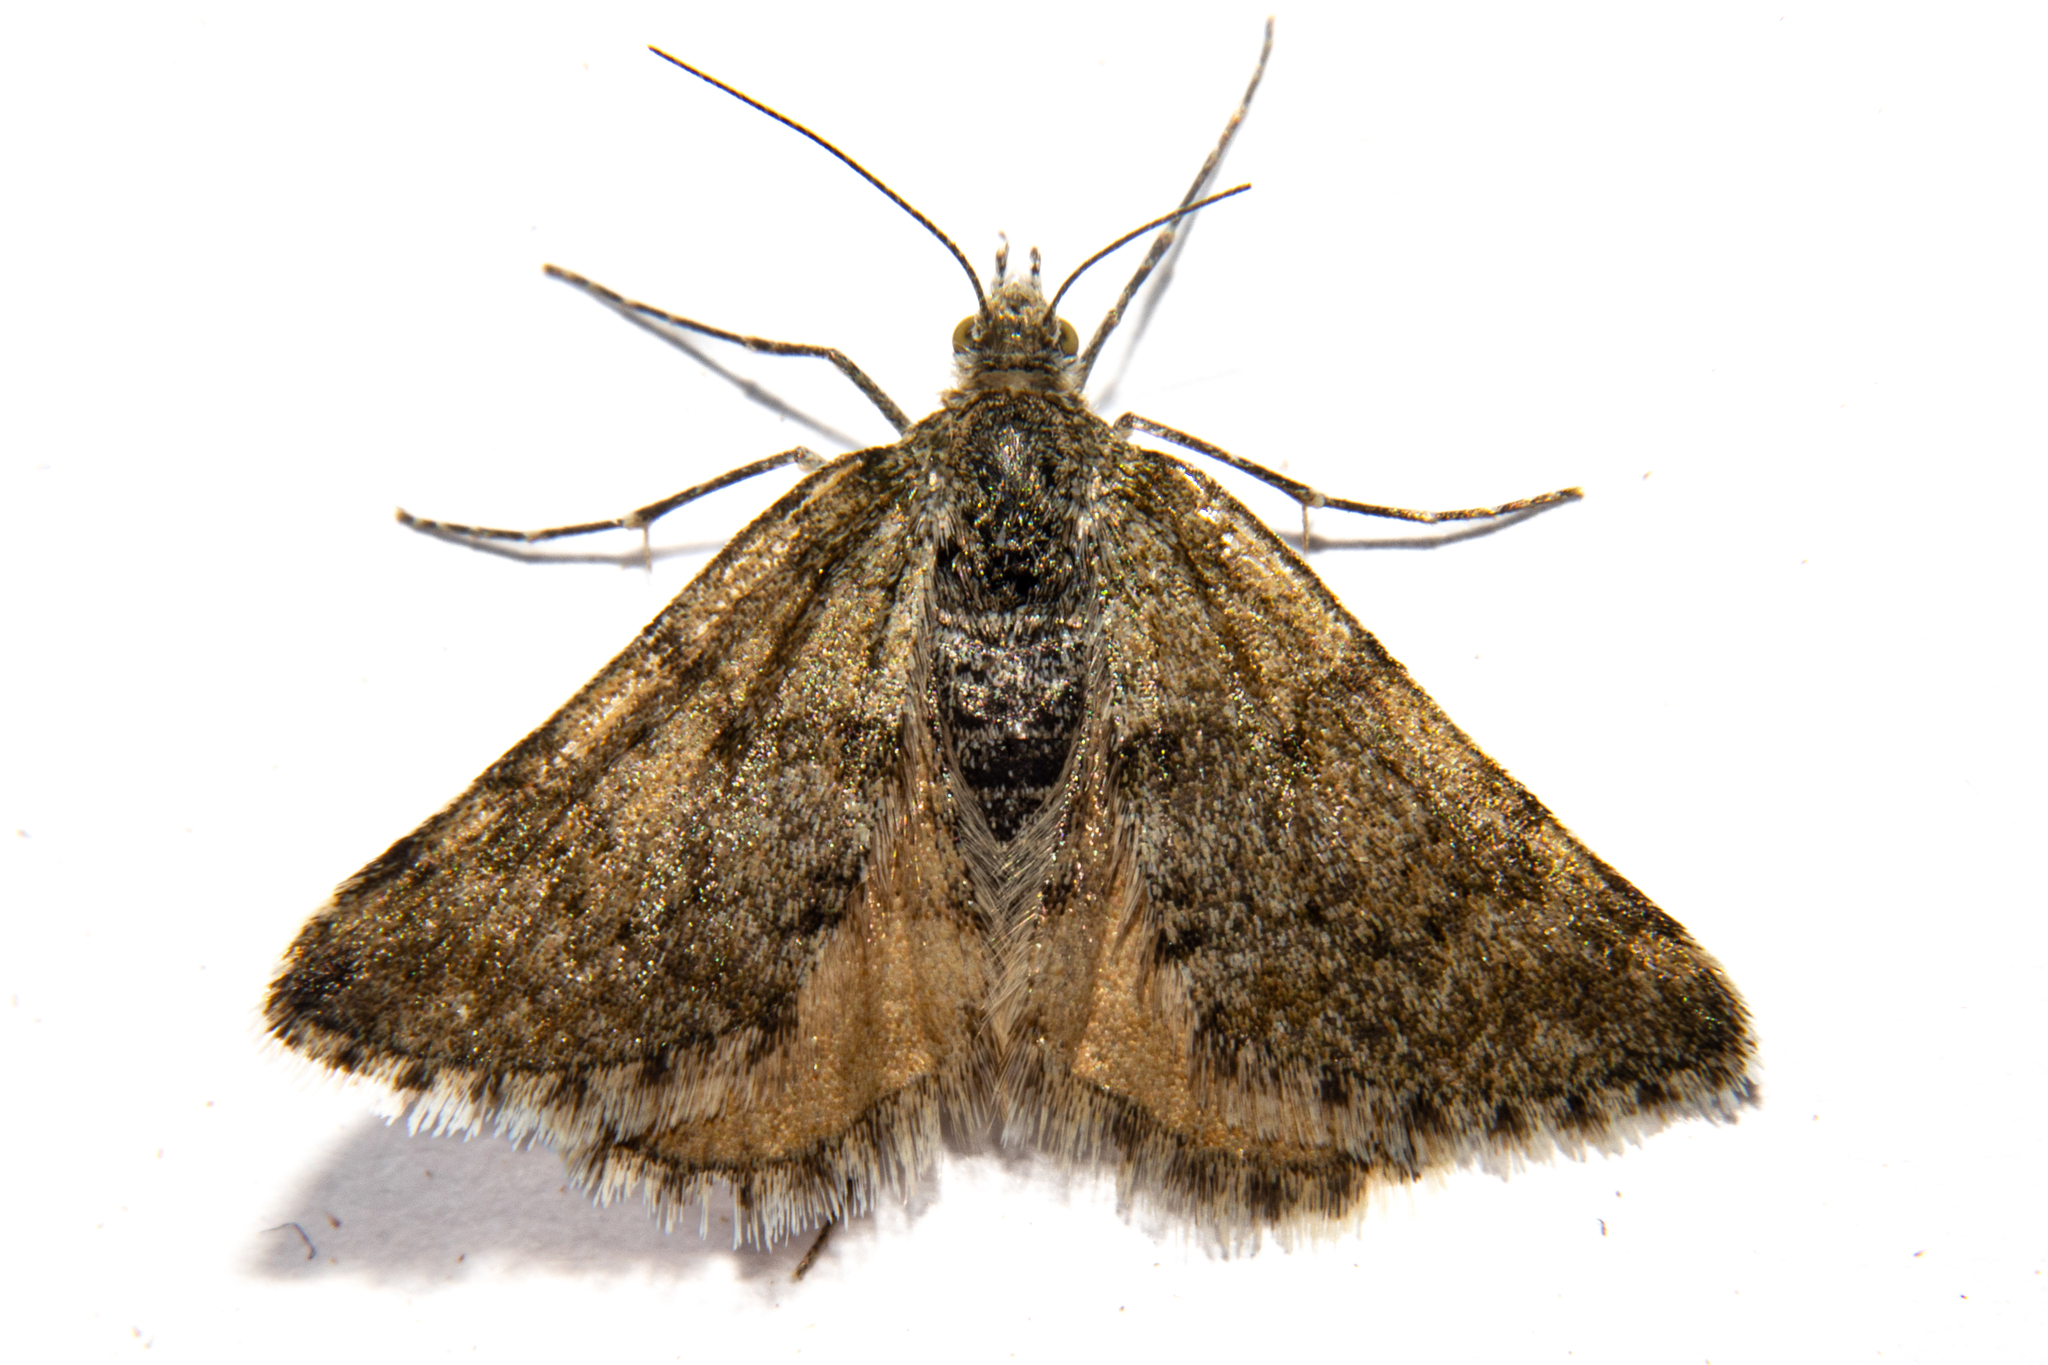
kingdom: Animalia
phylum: Arthropoda
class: Insecta
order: Lepidoptera
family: Geometridae
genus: Paranotoreas
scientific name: Paranotoreas fulva
